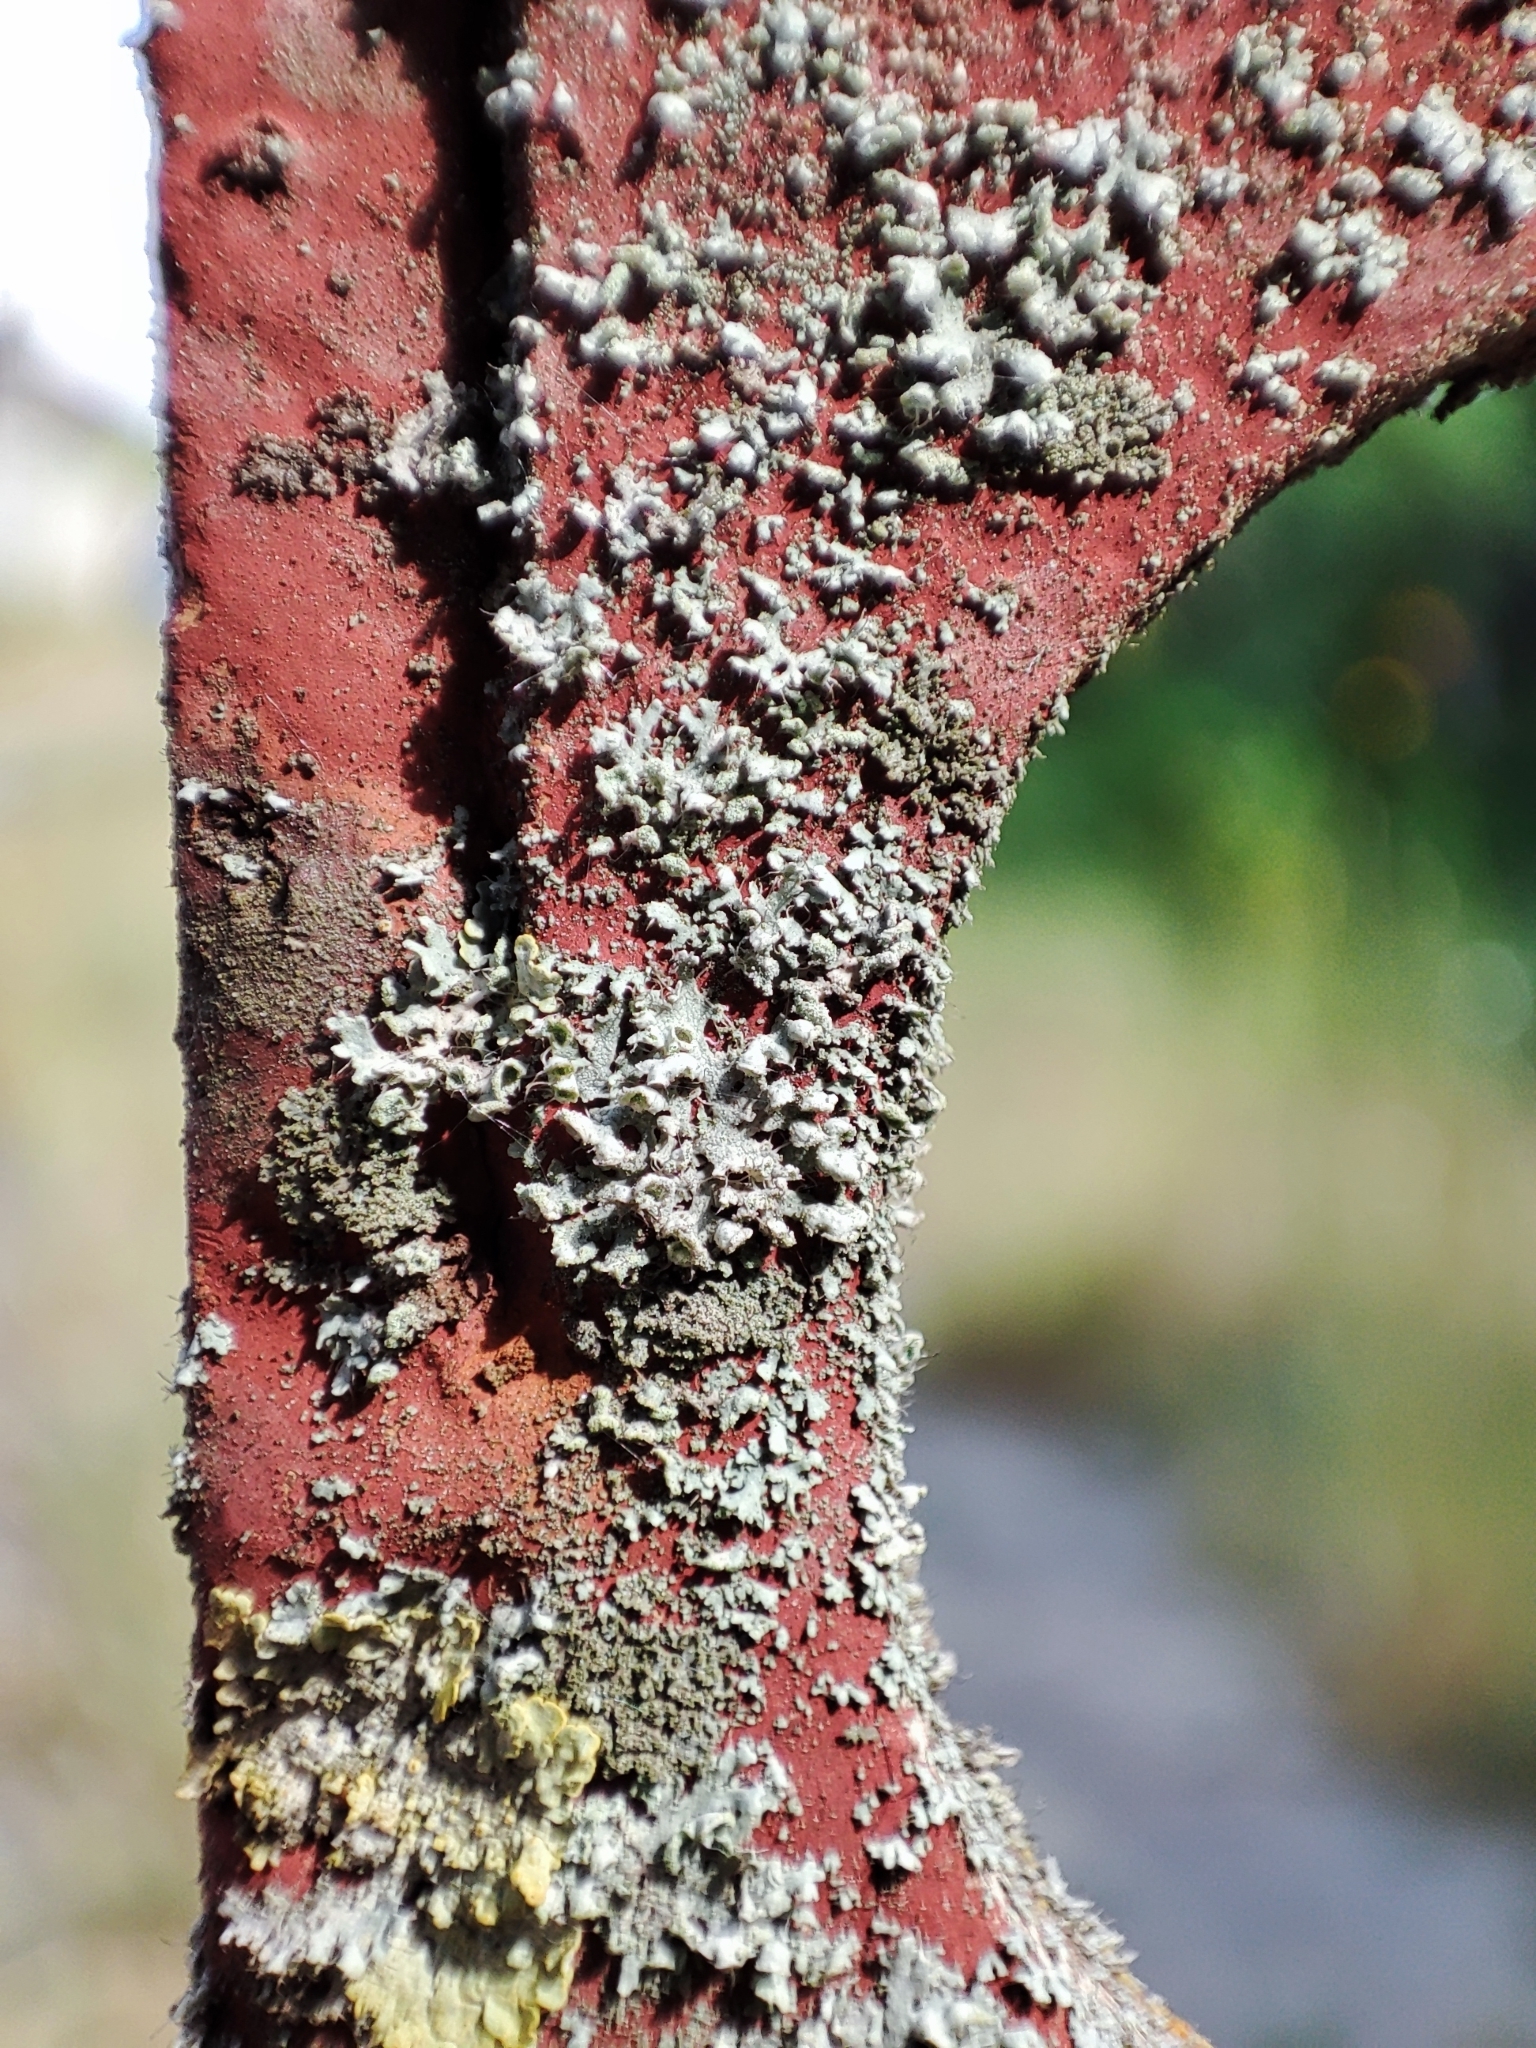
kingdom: Fungi
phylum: Ascomycota
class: Lecanoromycetes
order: Caliciales
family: Physciaceae
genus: Physcia
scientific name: Physcia adscendens
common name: Hooded rosette lichen
